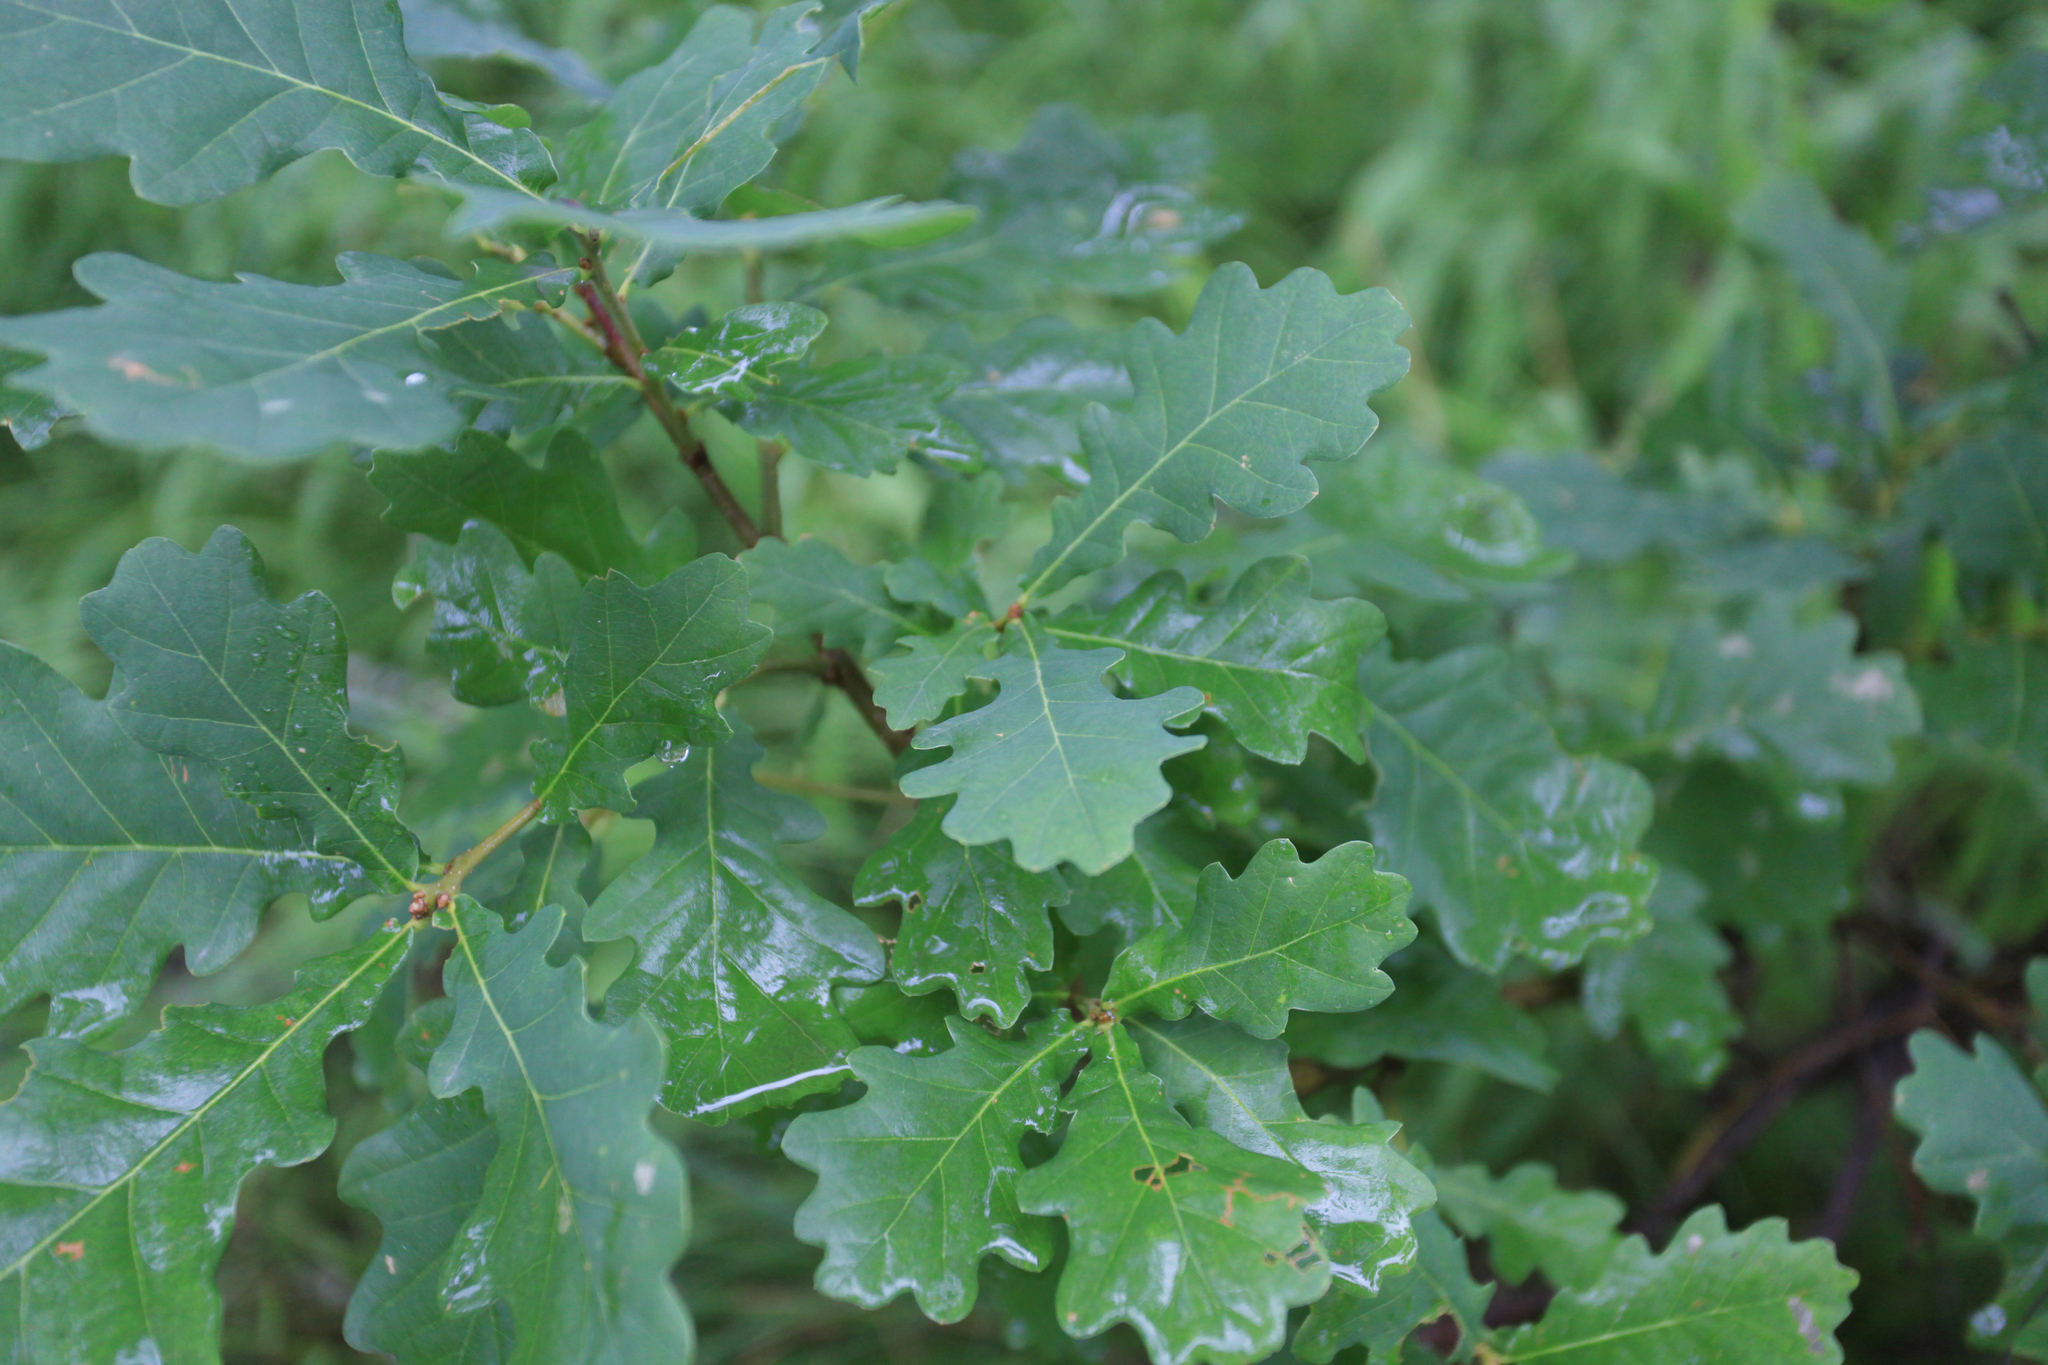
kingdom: Plantae
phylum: Tracheophyta
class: Magnoliopsida
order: Fagales
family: Fagaceae
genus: Quercus
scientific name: Quercus robur
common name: Pedunculate oak
